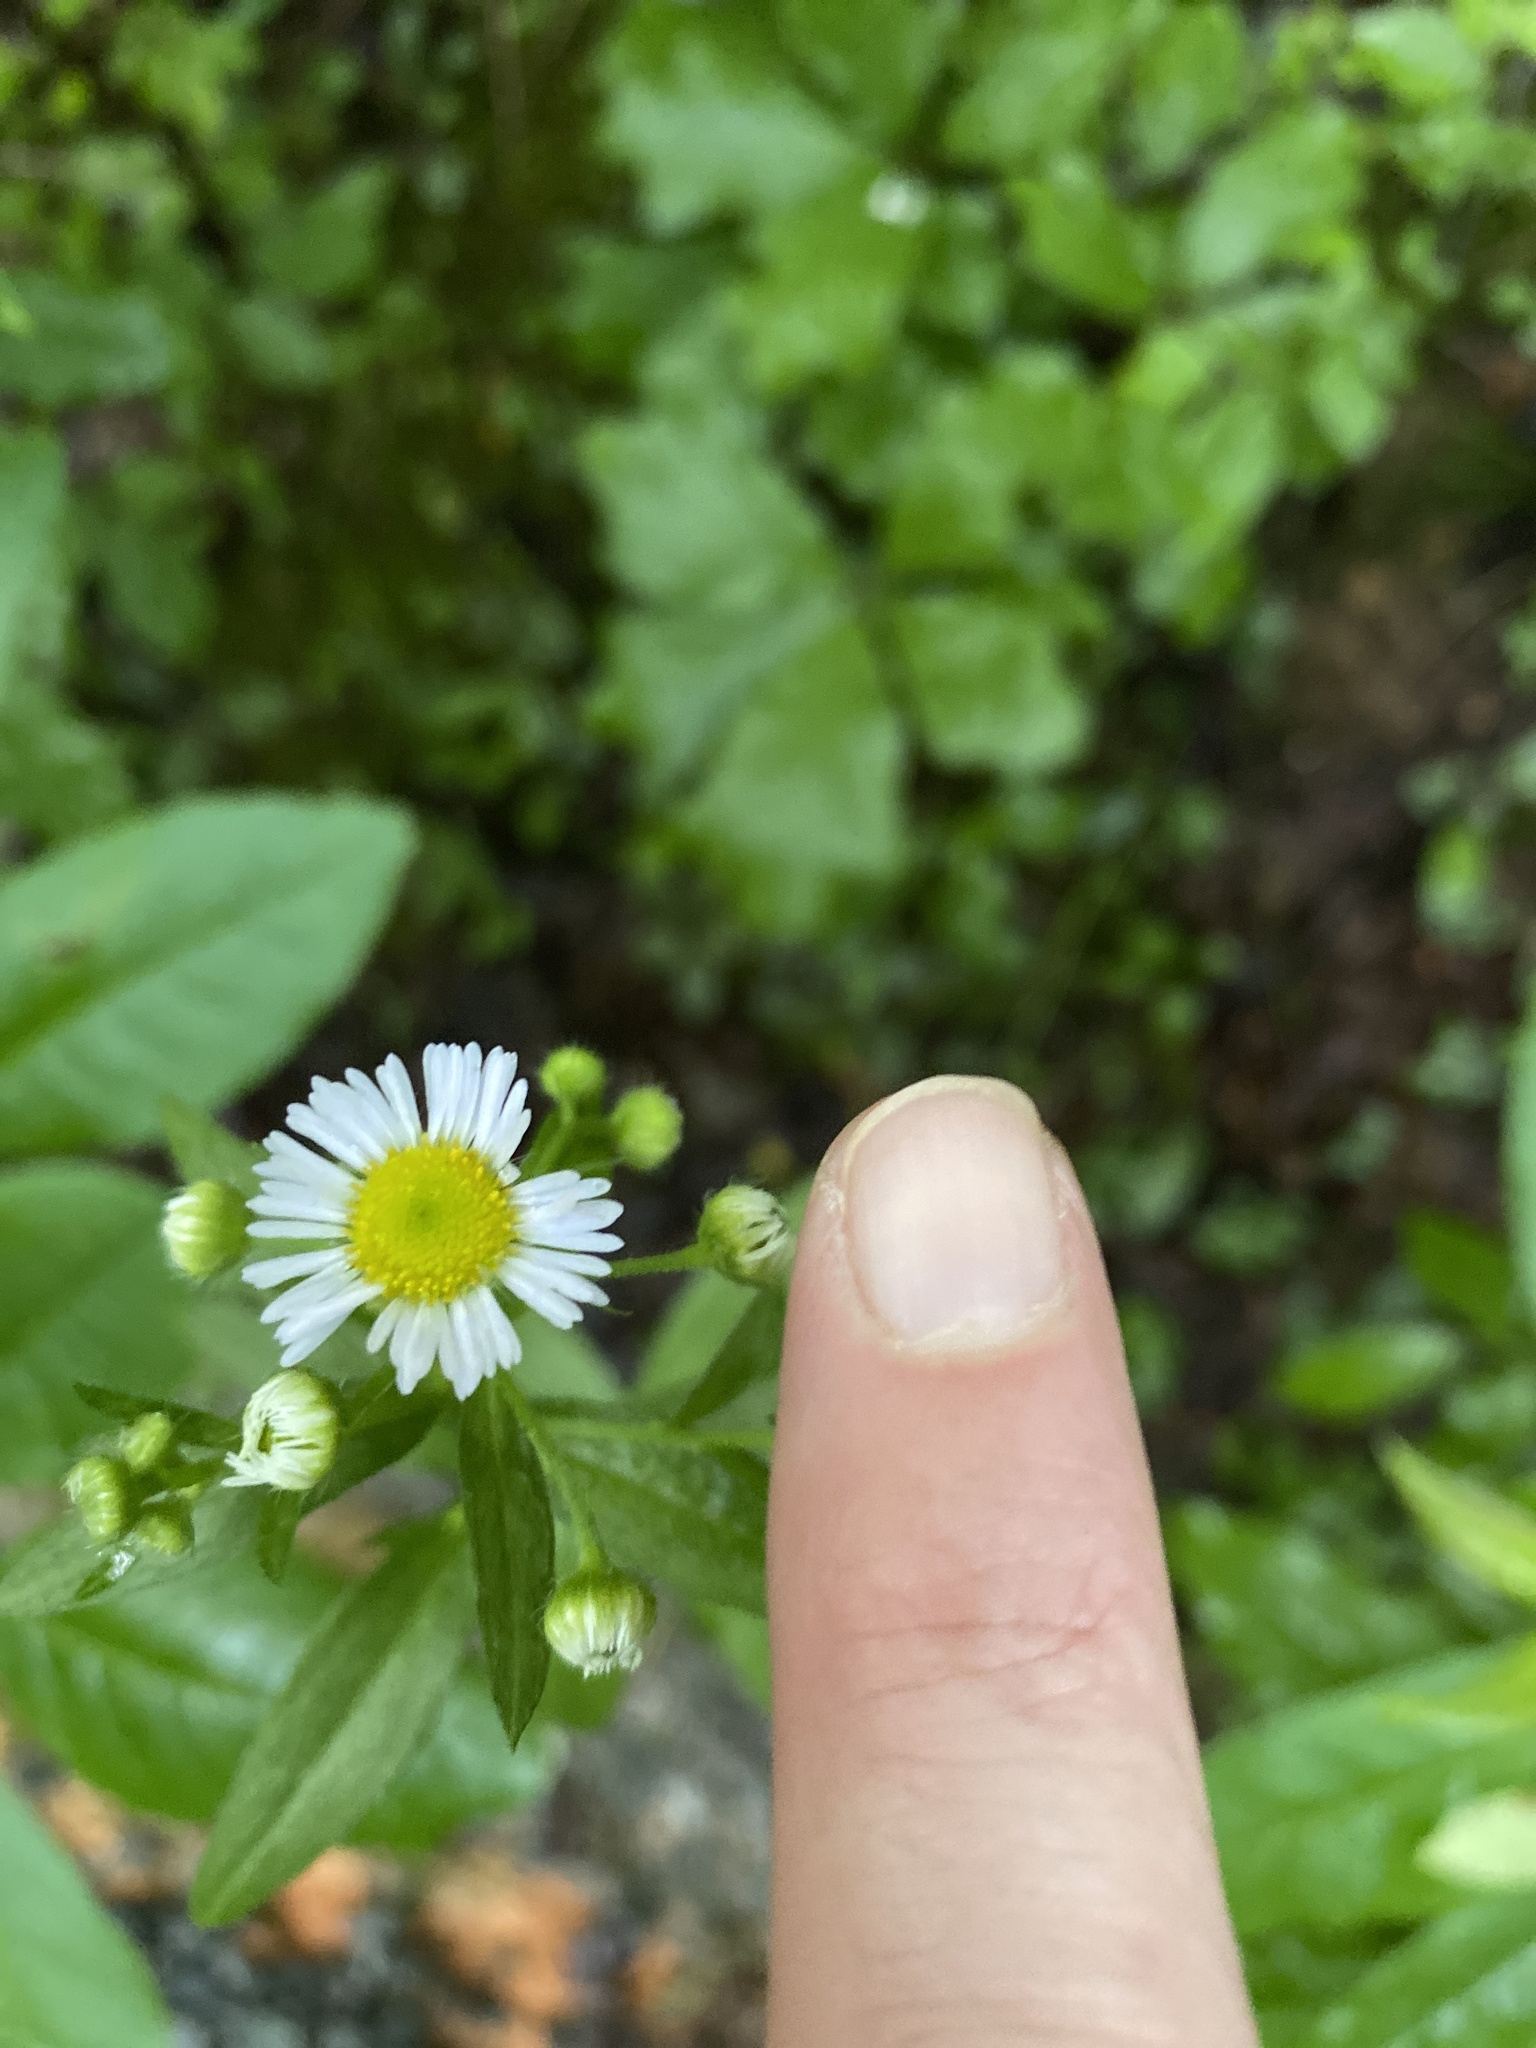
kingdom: Plantae
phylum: Tracheophyta
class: Magnoliopsida
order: Asterales
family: Asteraceae
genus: Erigeron
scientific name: Erigeron annuus
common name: Tall fleabane
